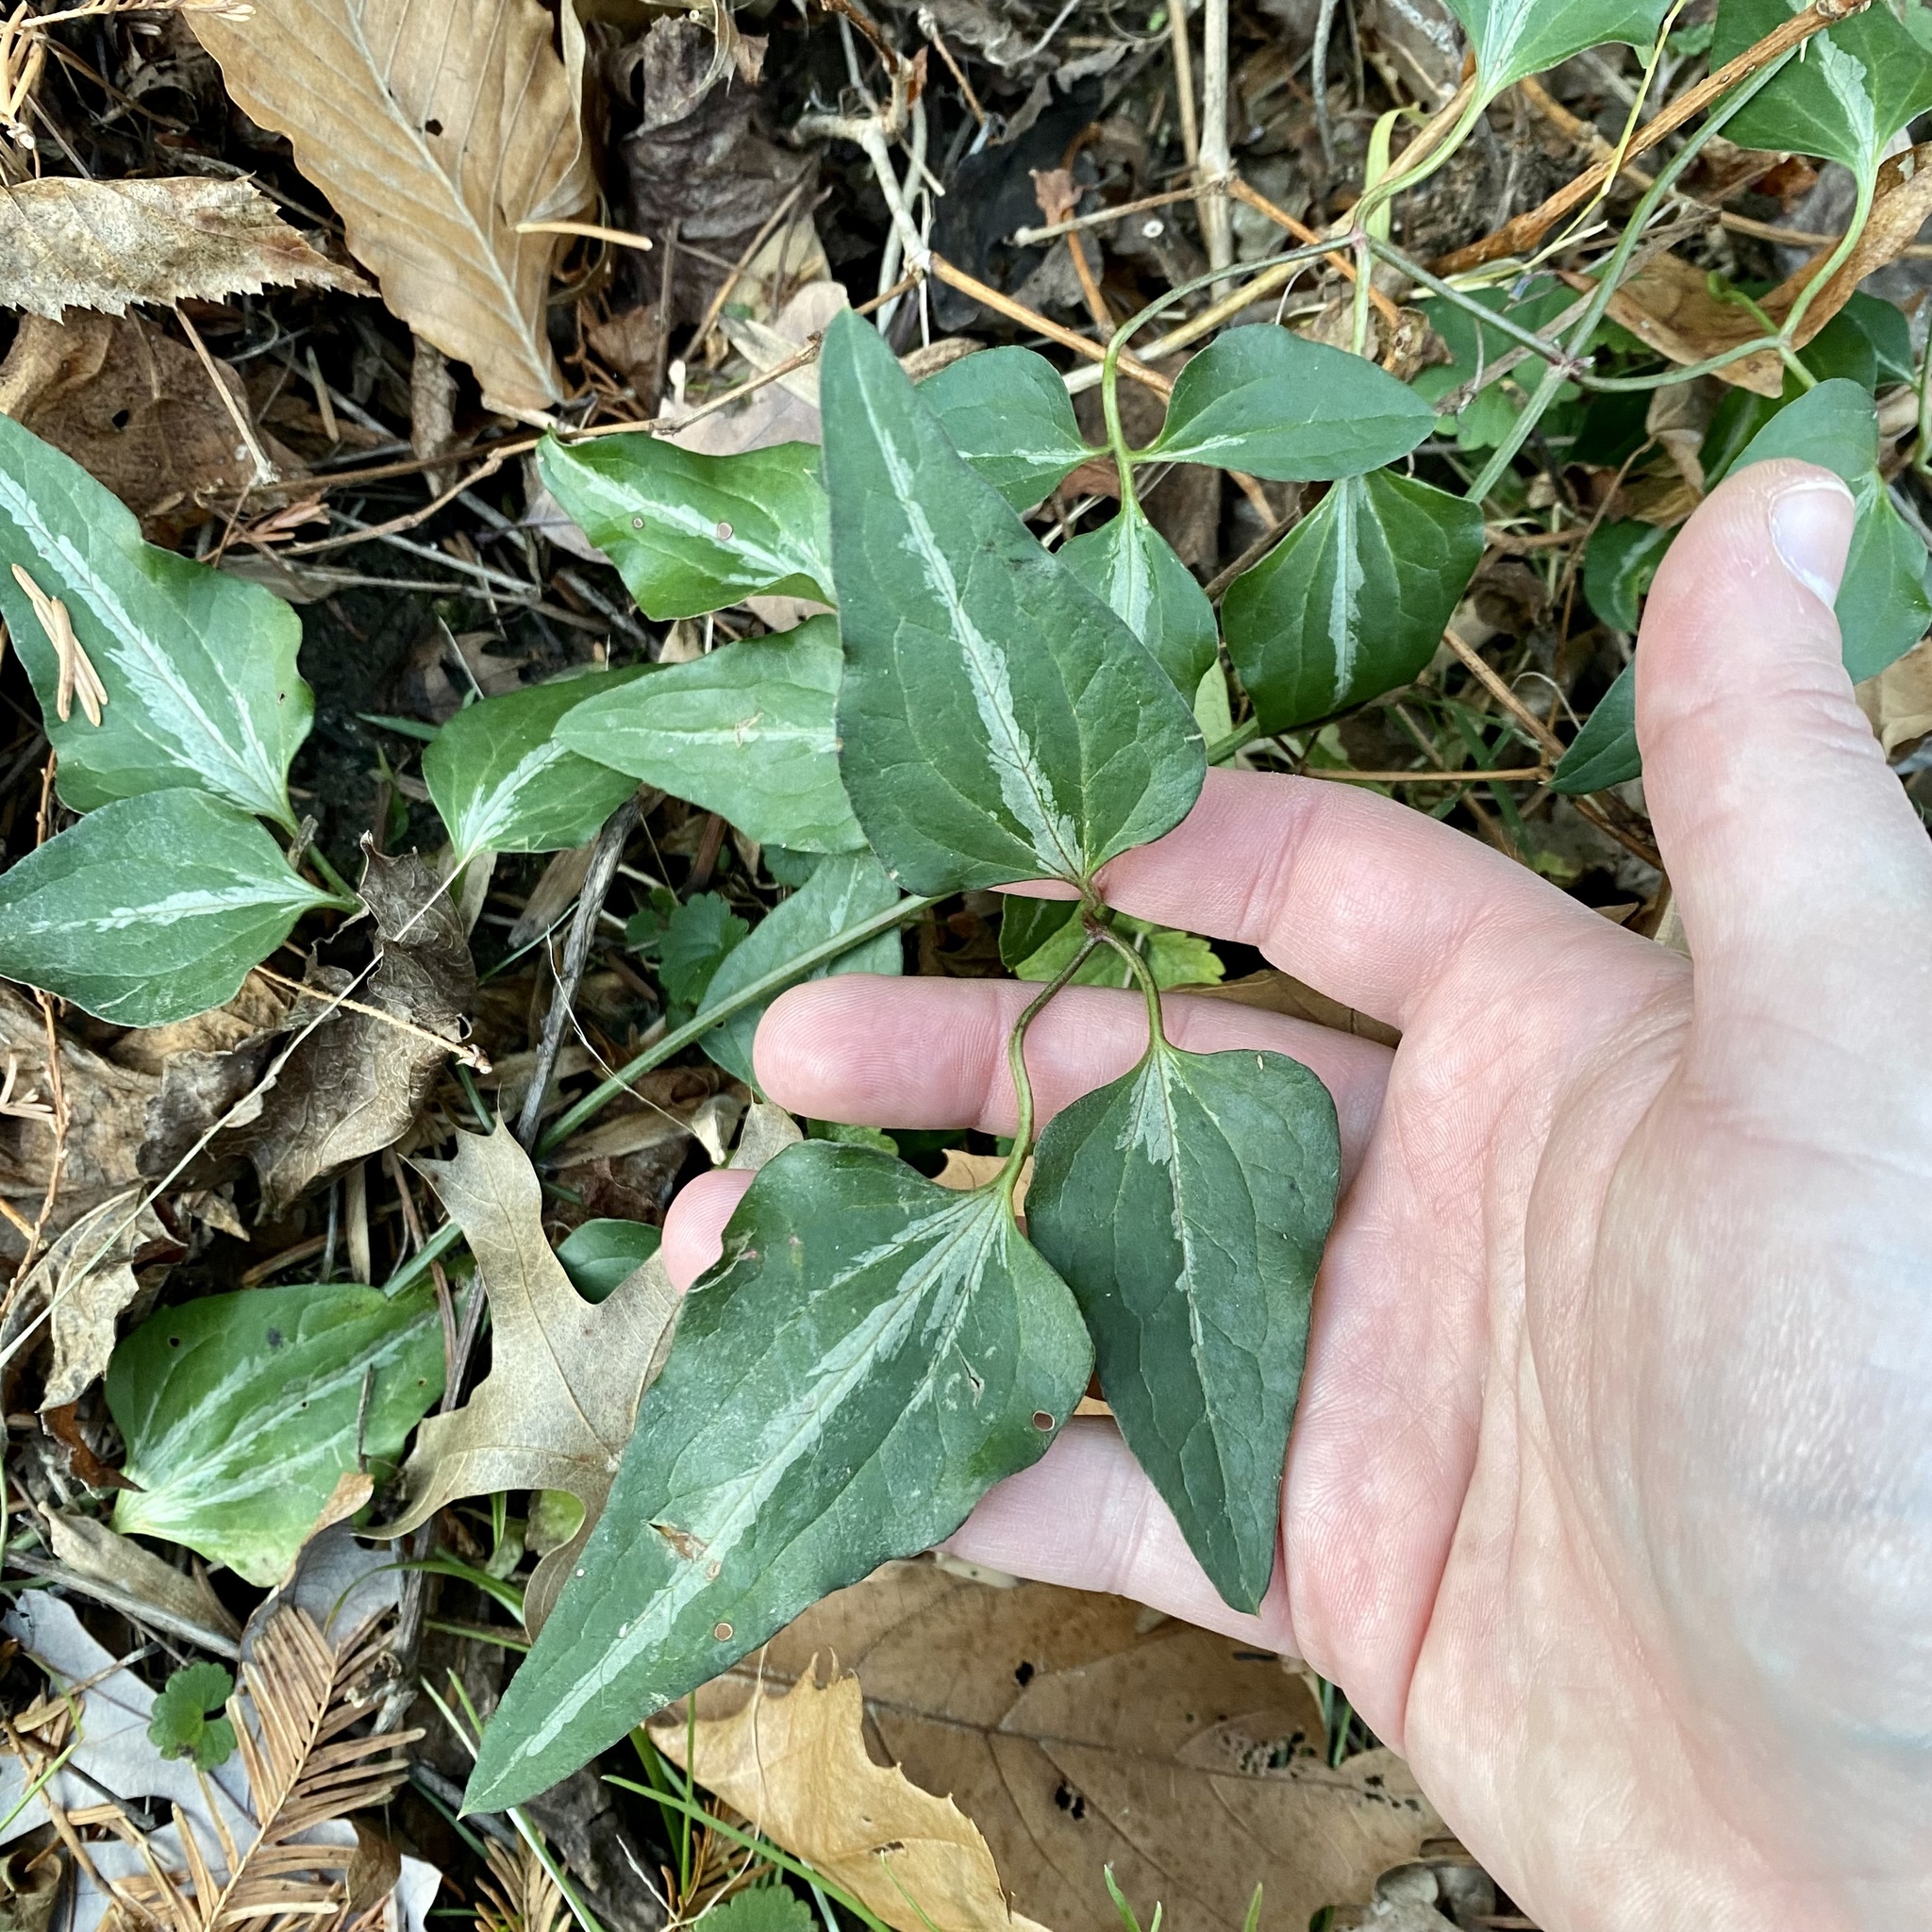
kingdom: Plantae
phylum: Tracheophyta
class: Magnoliopsida
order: Ranunculales
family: Ranunculaceae
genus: Clematis
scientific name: Clematis terniflora
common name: Sweet autumn clematis
